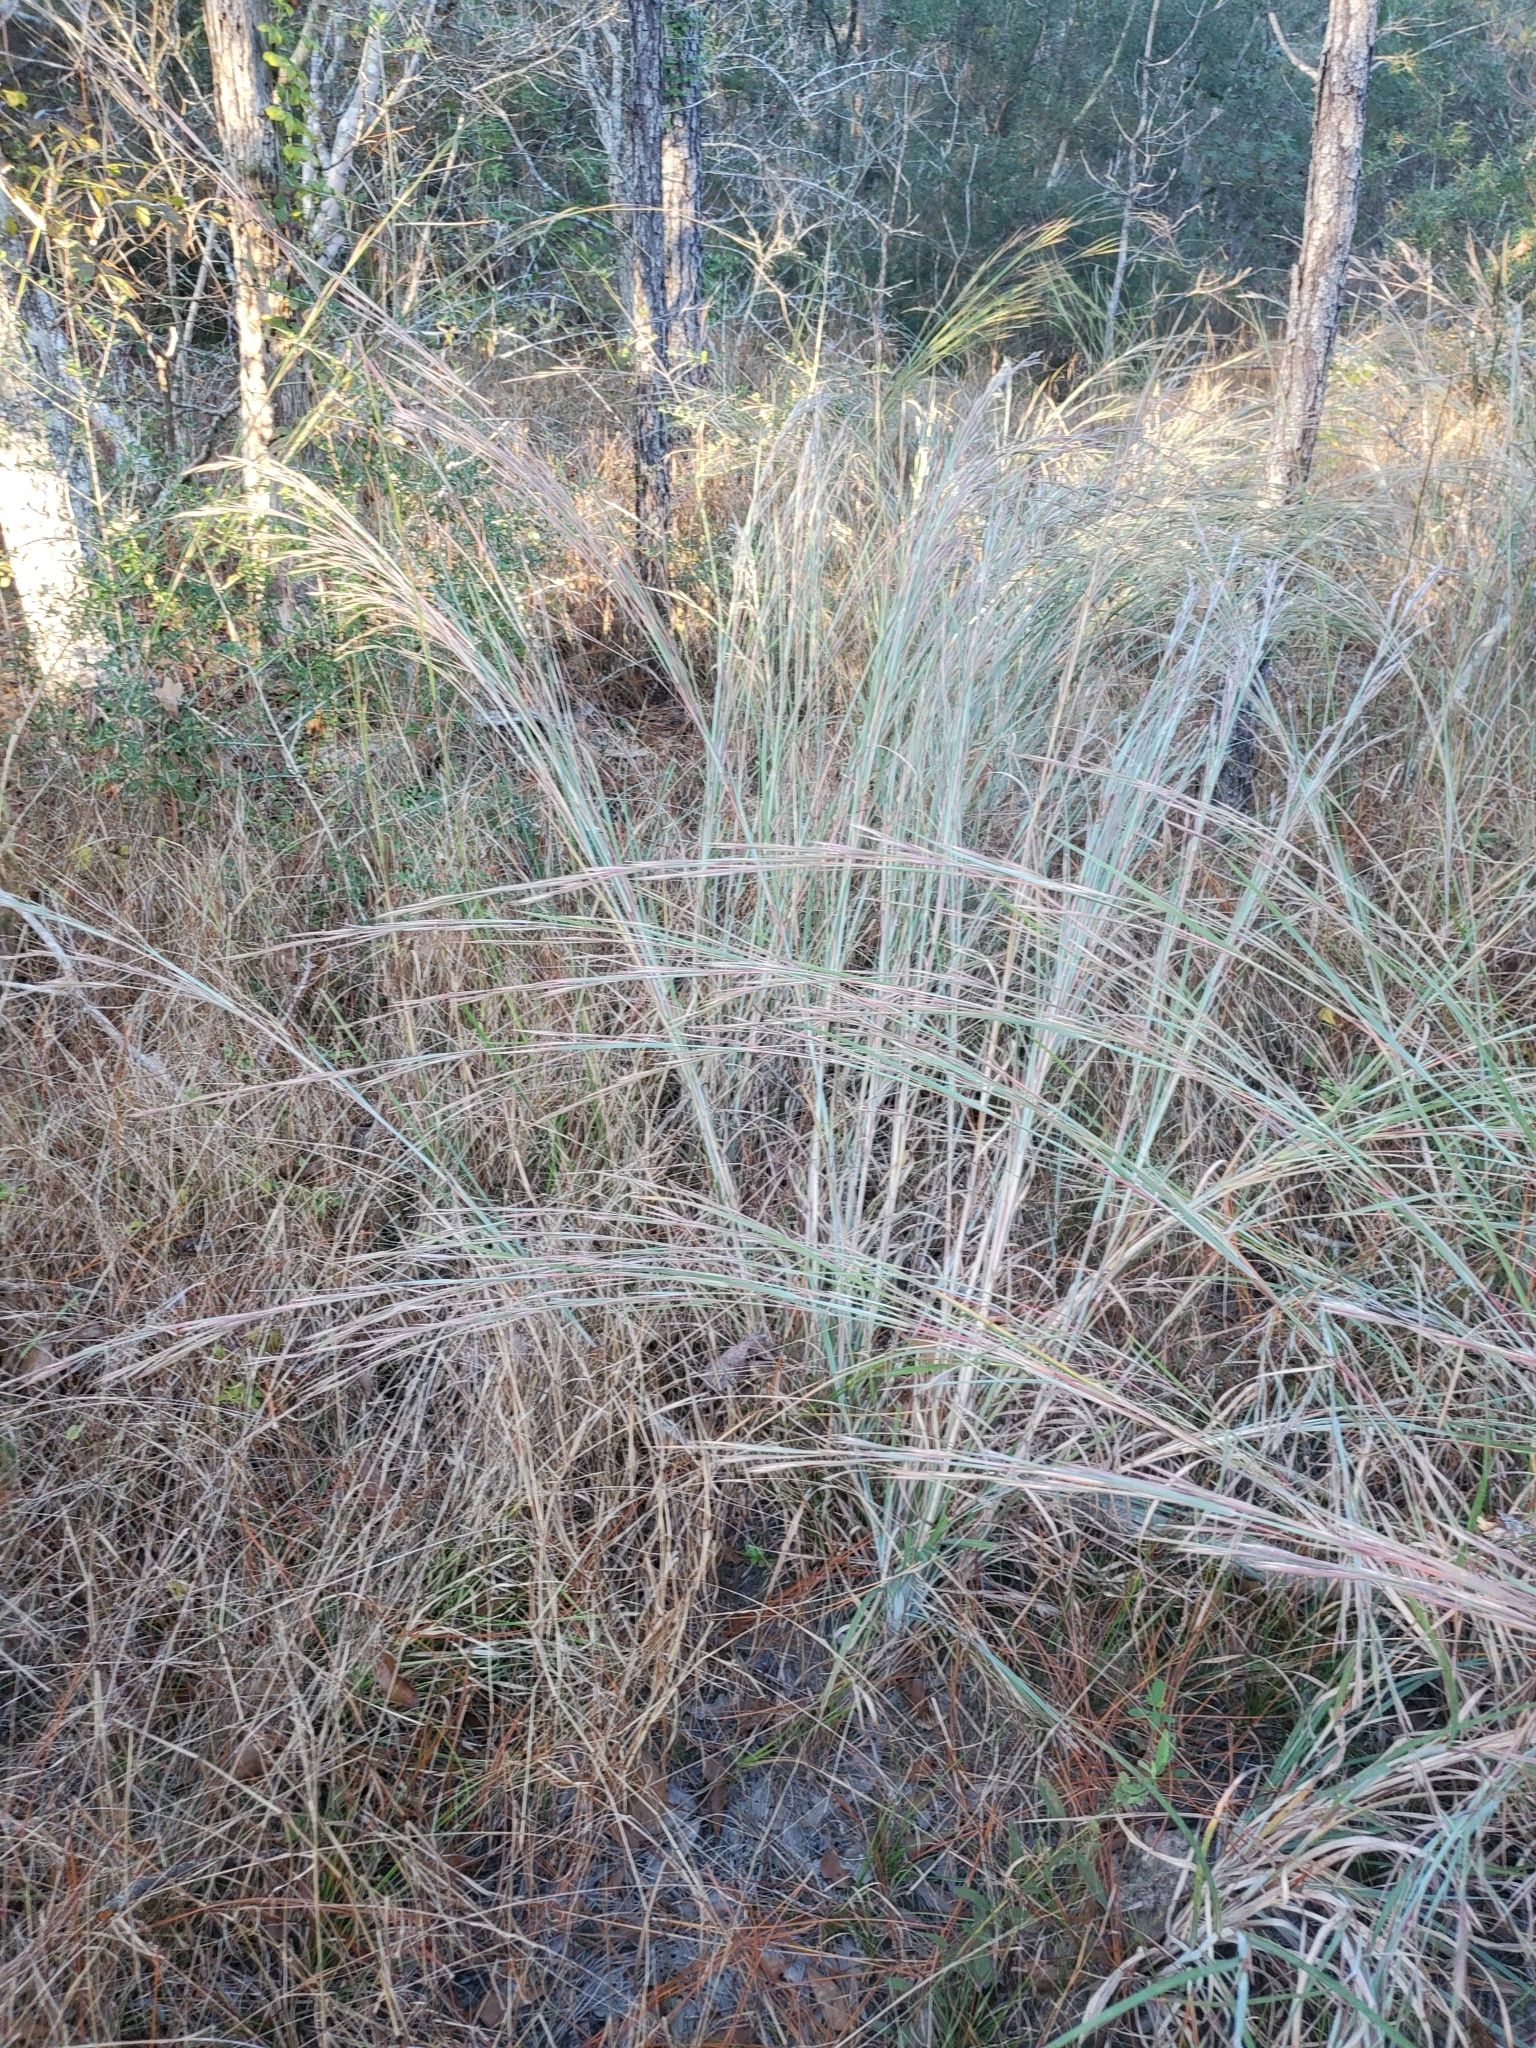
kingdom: Plantae
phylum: Tracheophyta
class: Liliopsida
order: Poales
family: Poaceae
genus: Schizachyrium
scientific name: Schizachyrium scoparium
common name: Little bluestem
